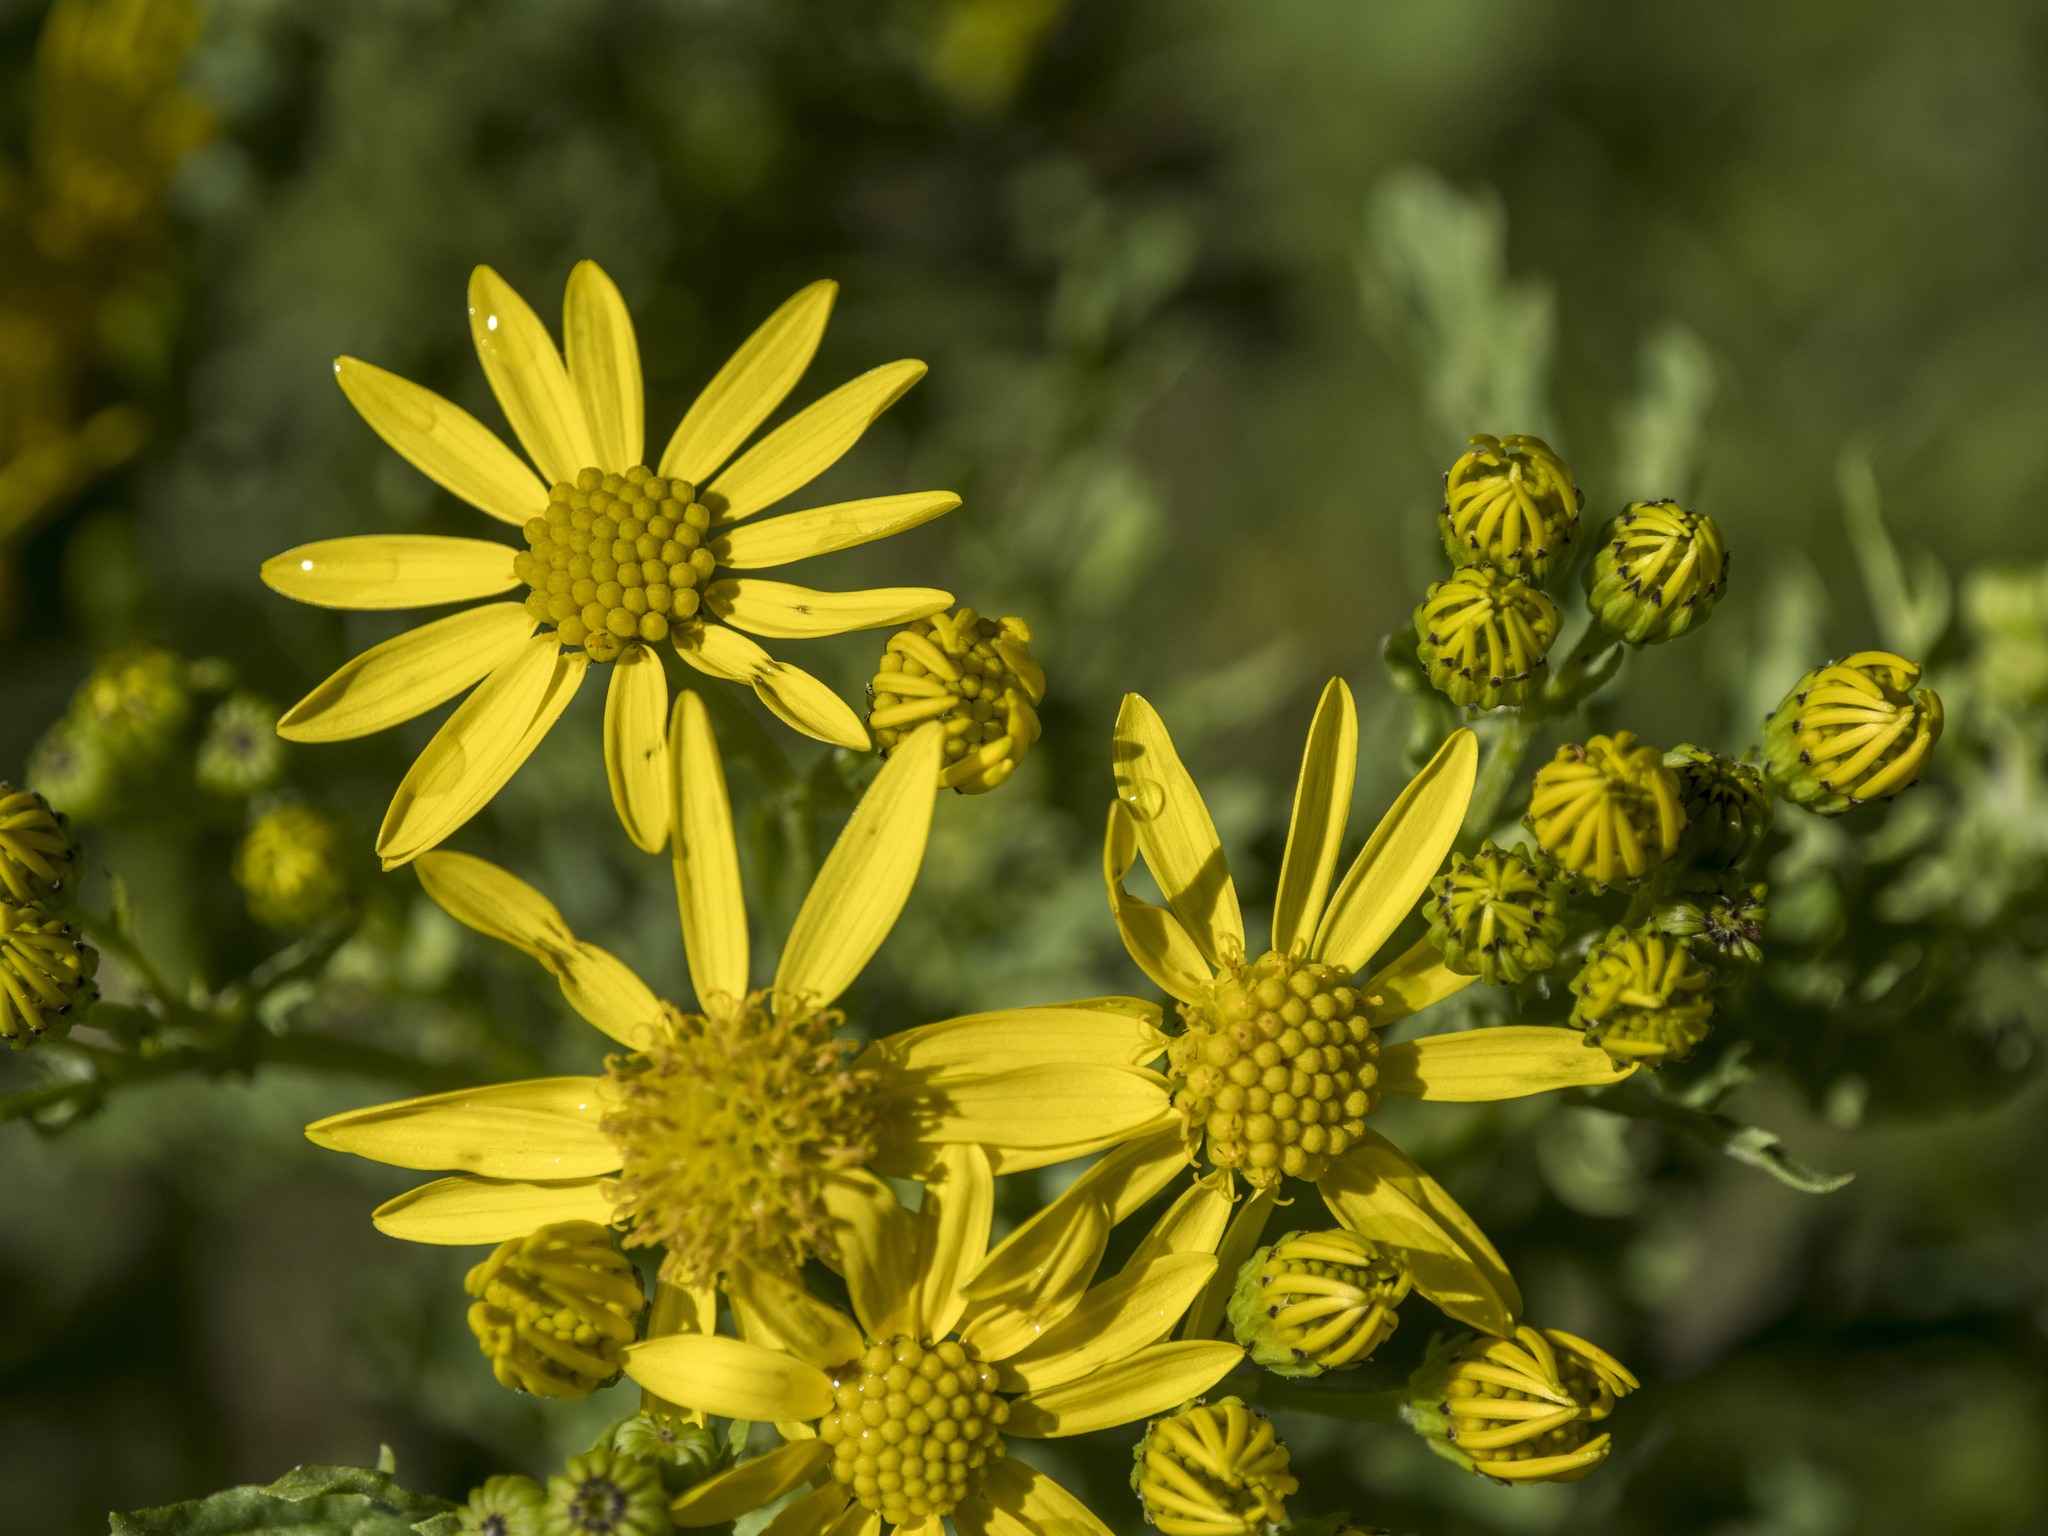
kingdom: Plantae
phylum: Tracheophyta
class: Magnoliopsida
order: Asterales
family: Asteraceae
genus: Jacobaea
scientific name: Jacobaea vulgaris
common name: Stinking willie
